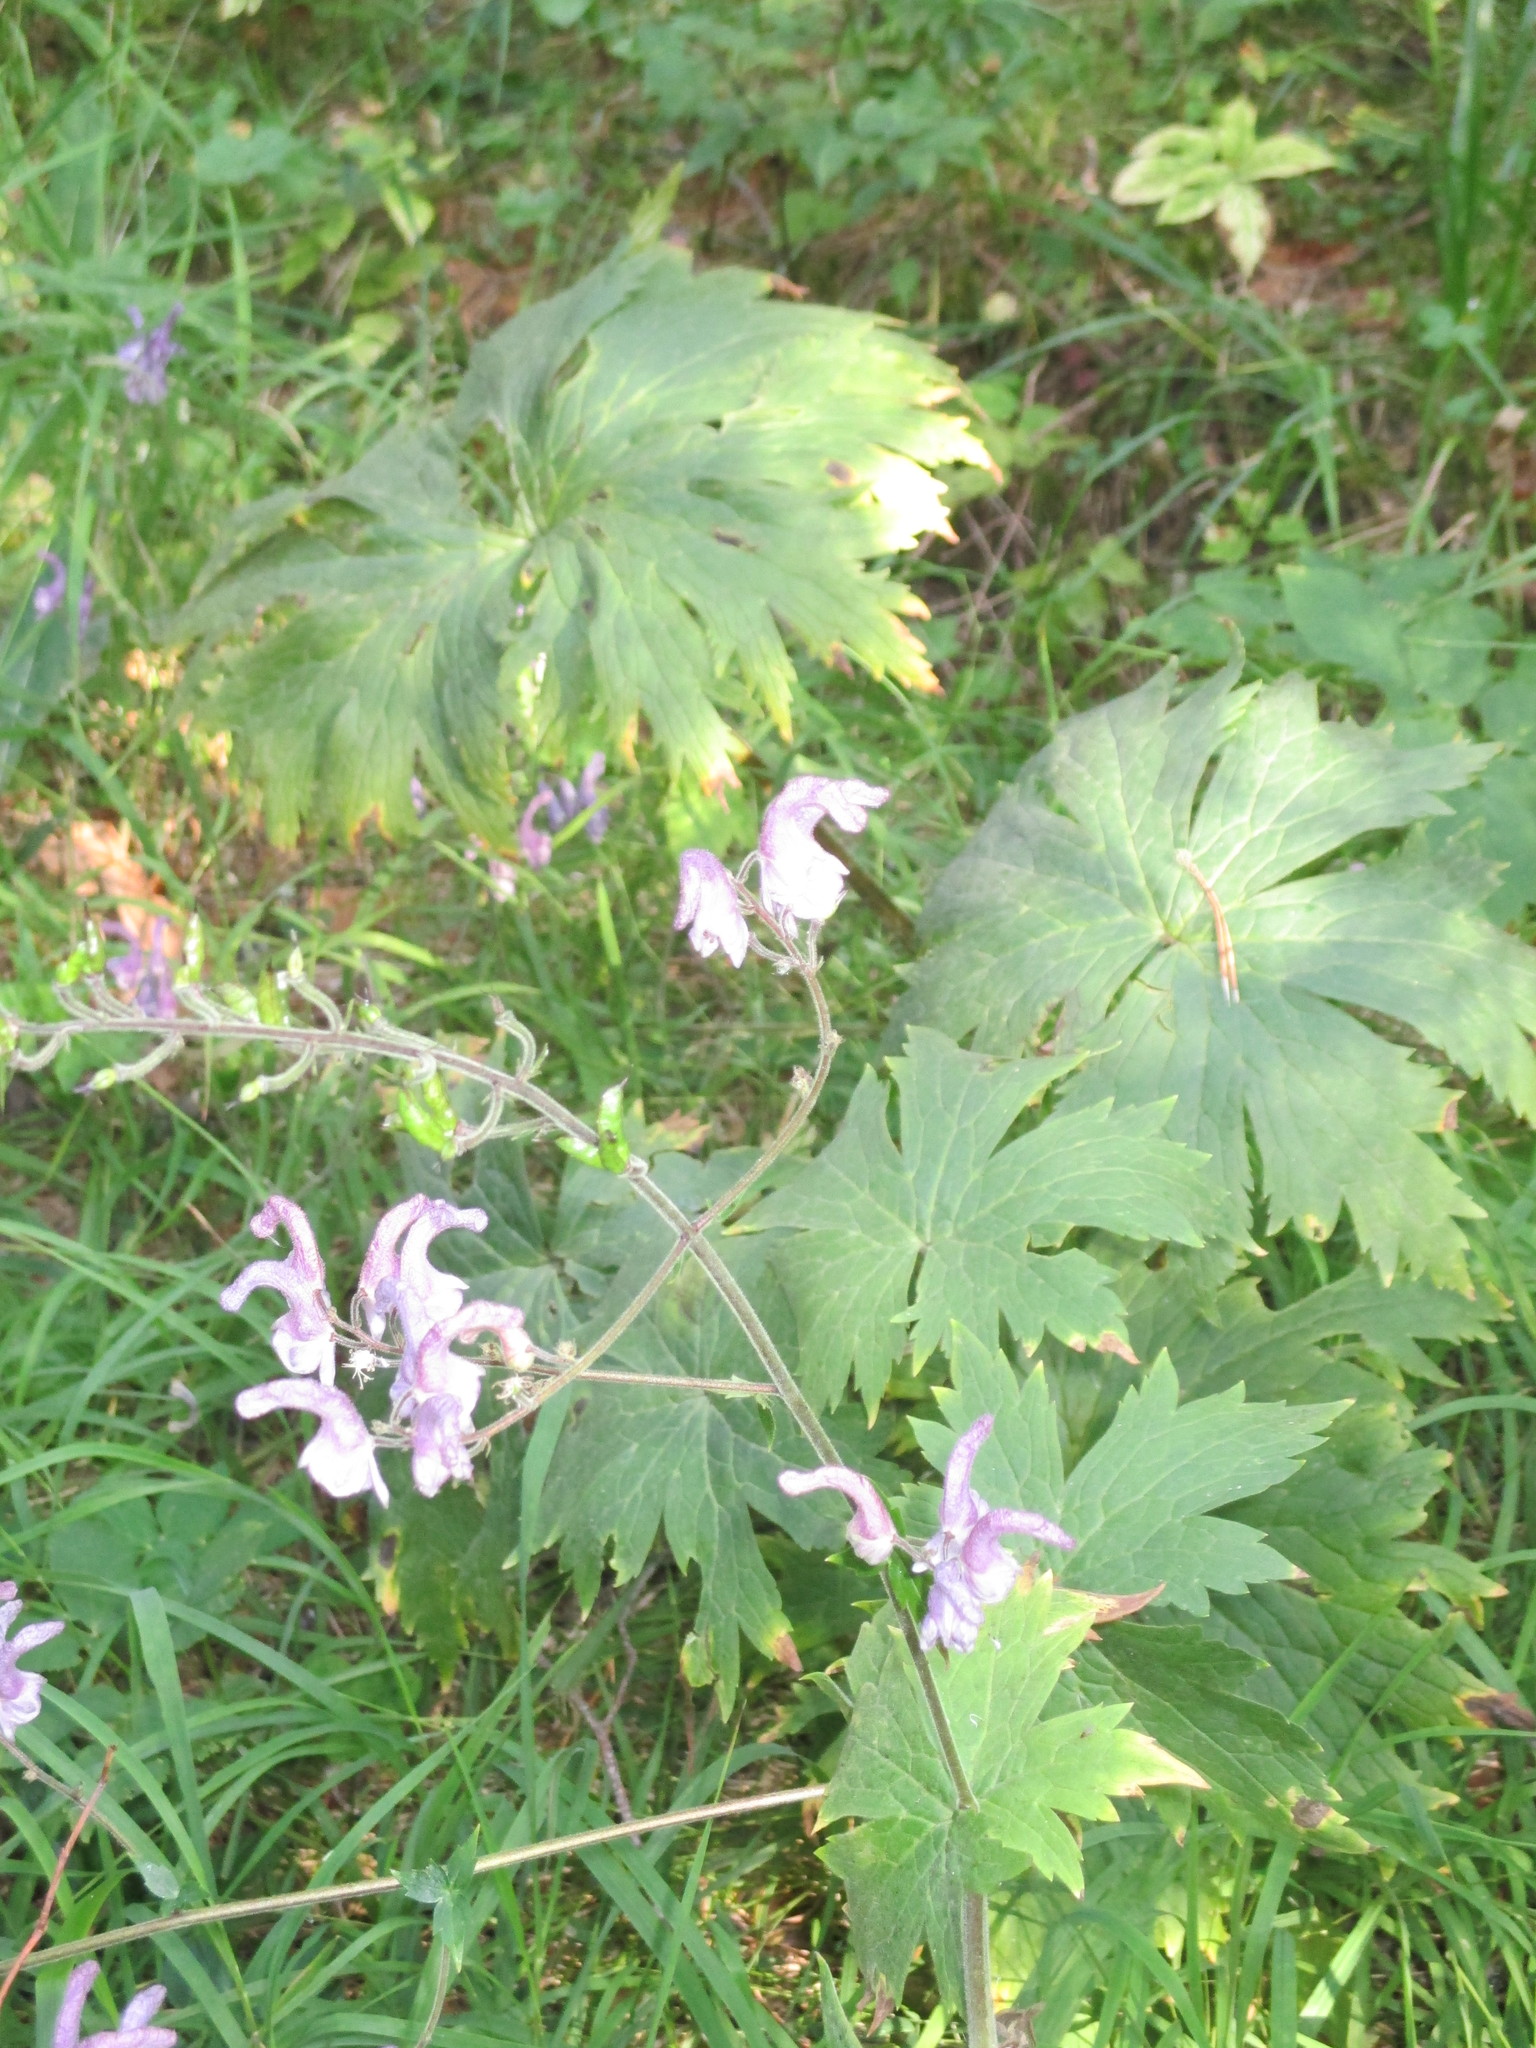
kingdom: Plantae
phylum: Tracheophyta
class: Magnoliopsida
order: Ranunculales
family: Ranunculaceae
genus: Aconitum
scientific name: Aconitum septentrionale
